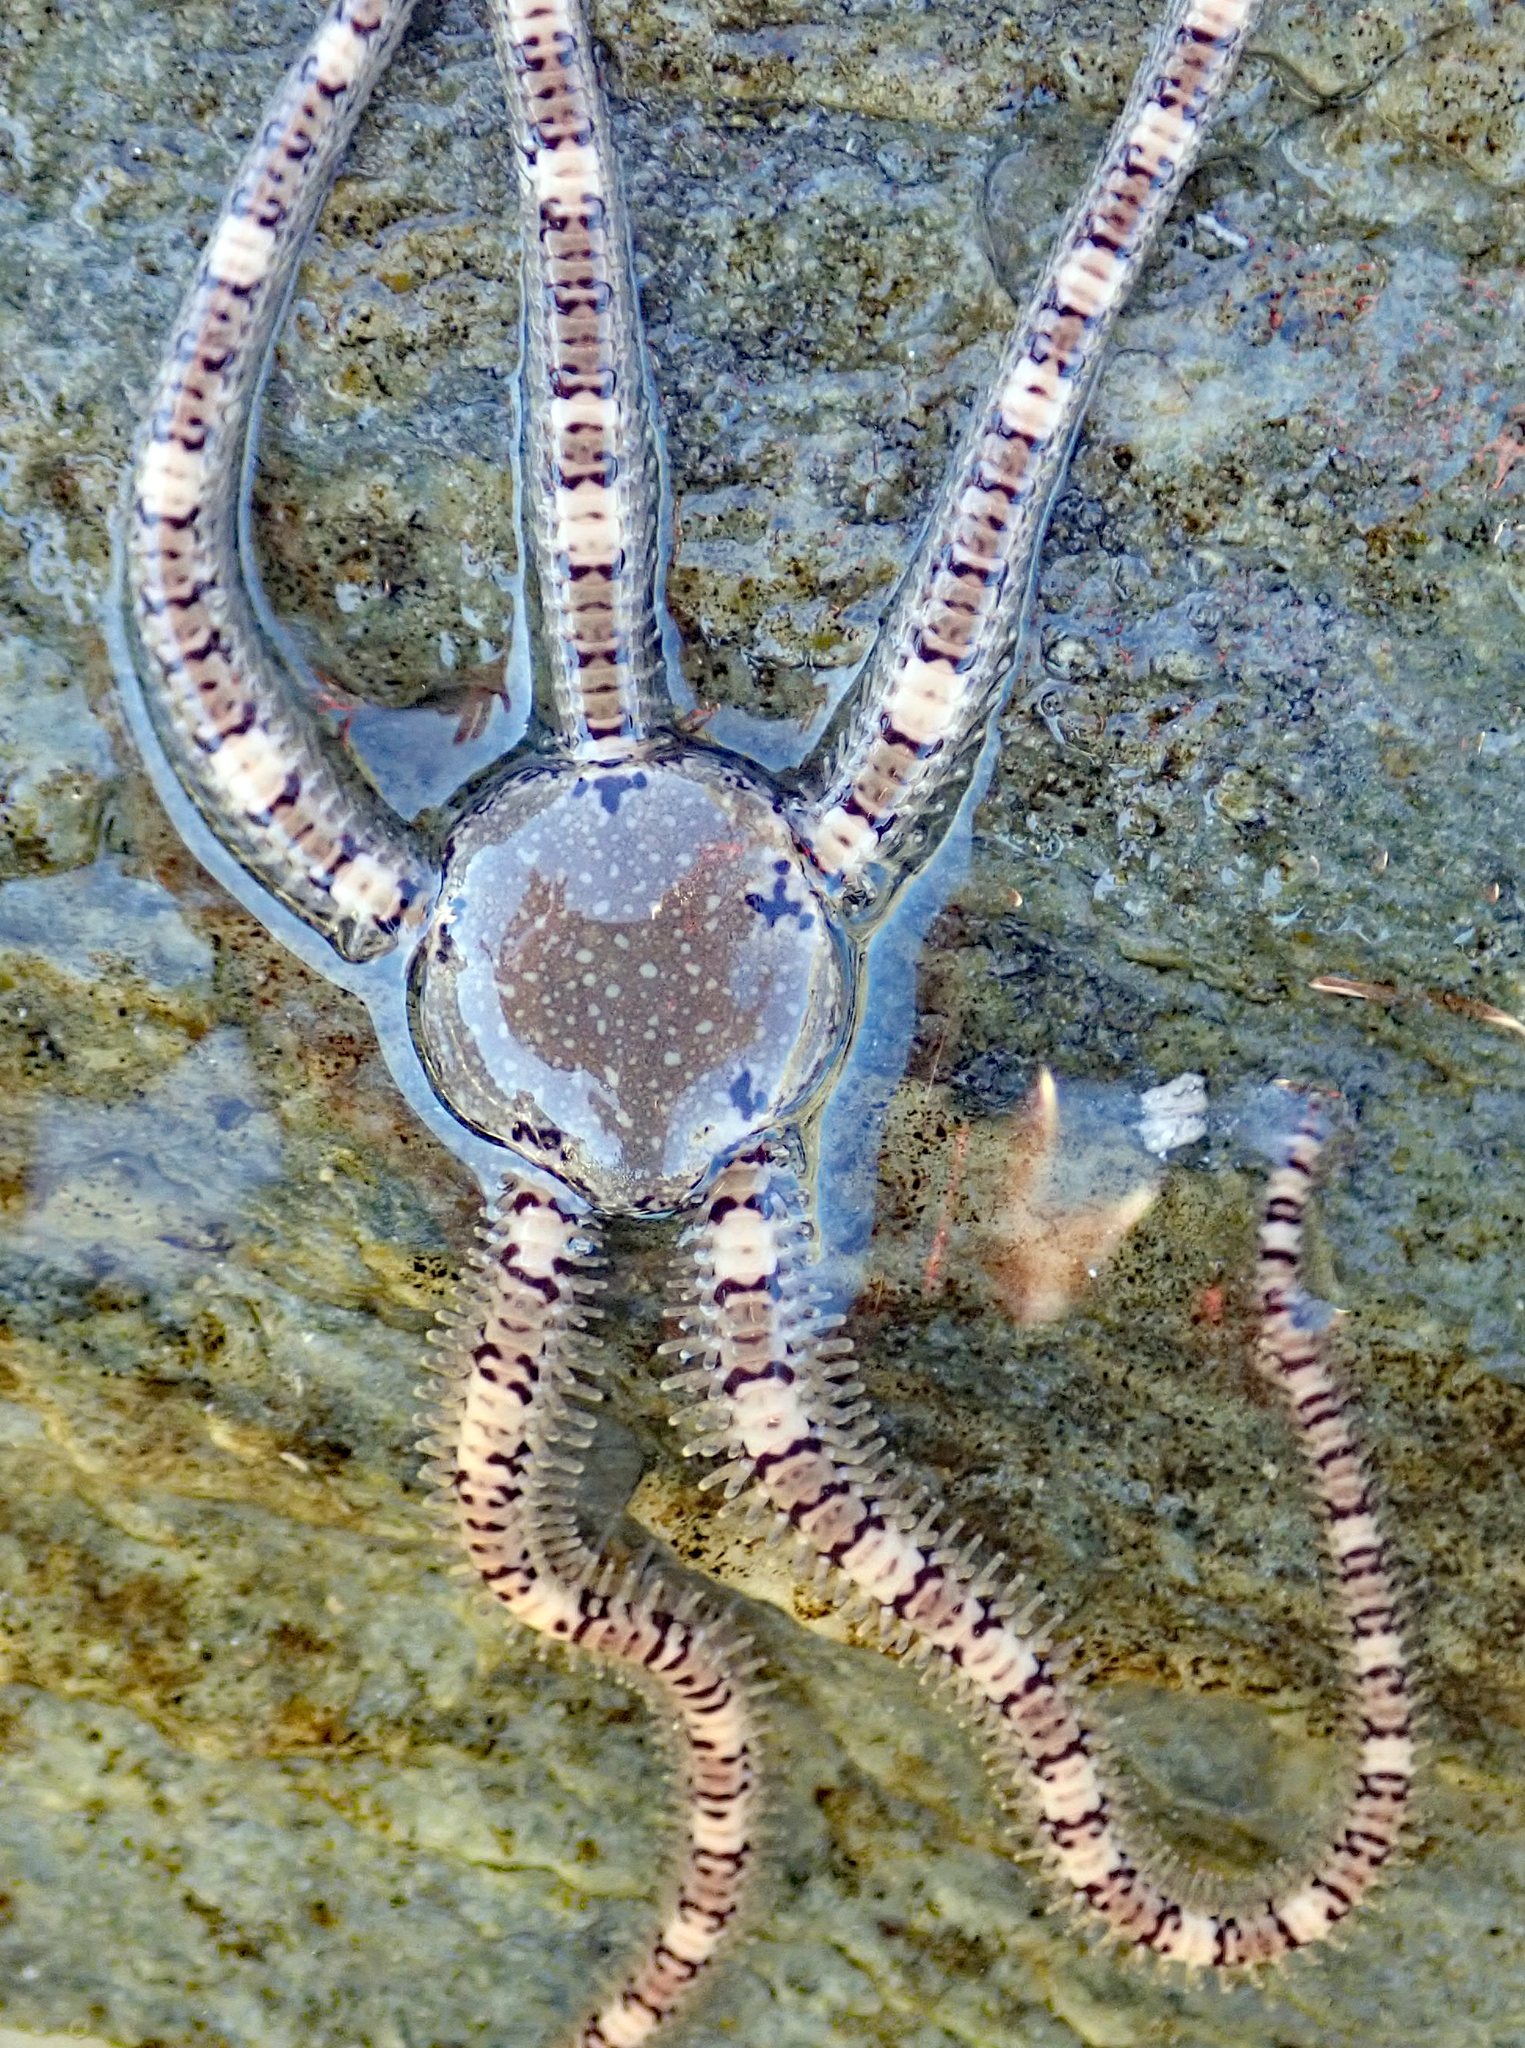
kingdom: Animalia
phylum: Echinodermata
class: Ophiuroidea
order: Amphilepidida
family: Ophionereididae
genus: Ophionereis
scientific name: Ophionereis fasciata
